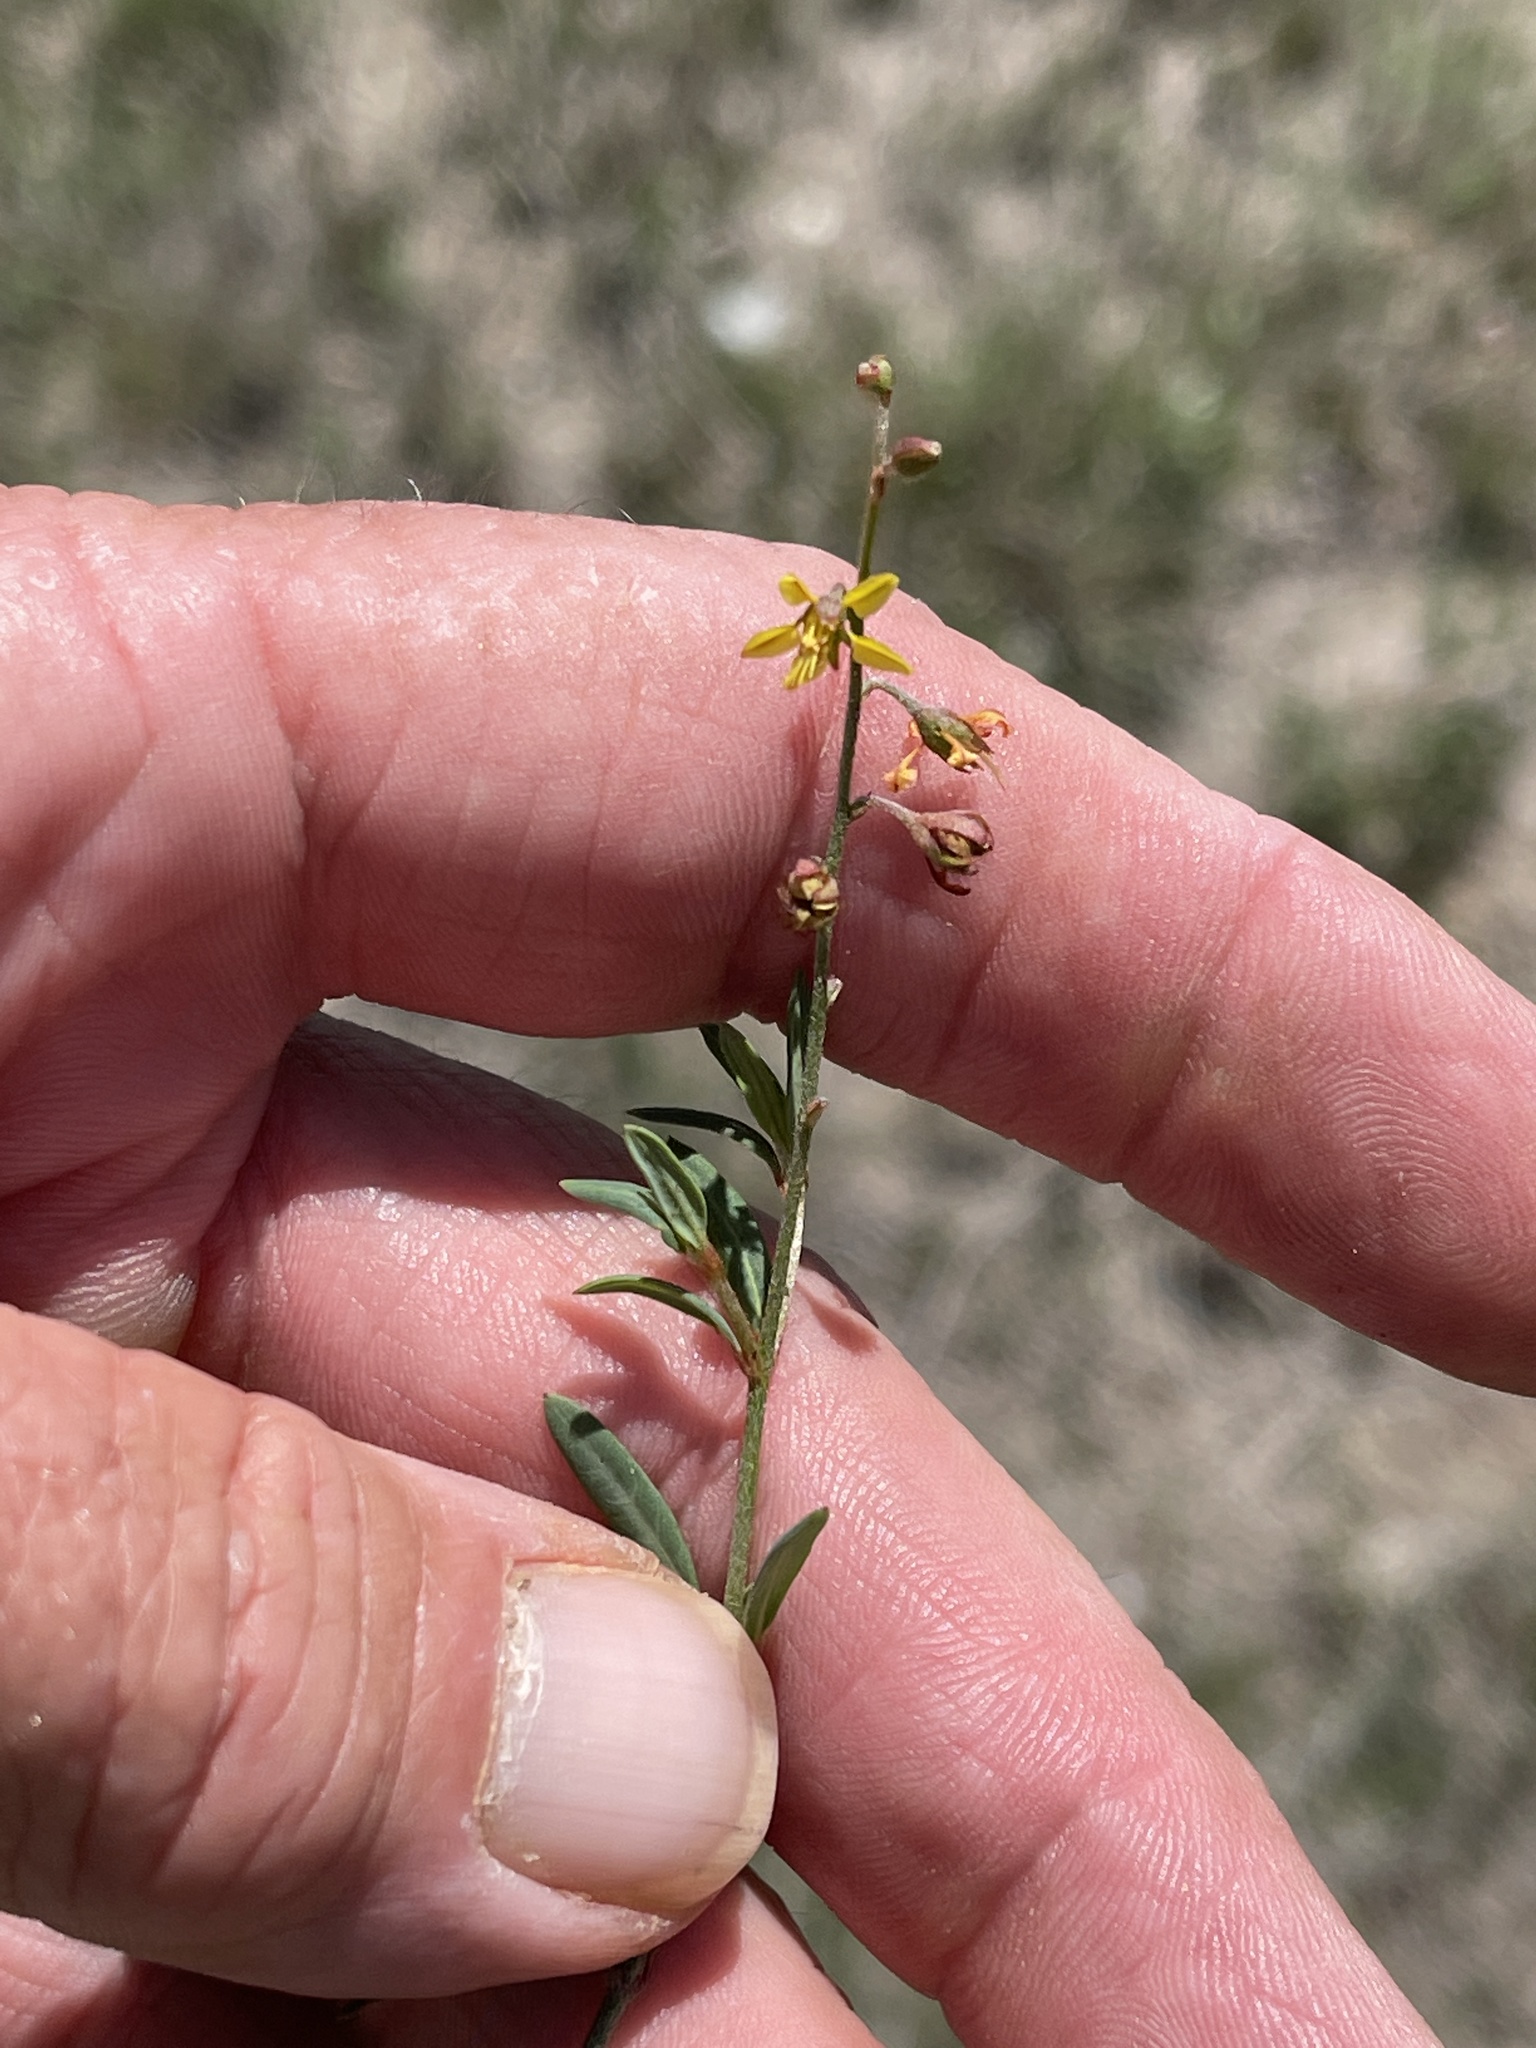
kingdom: Plantae
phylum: Tracheophyta
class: Magnoliopsida
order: Malpighiales
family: Malpighiaceae
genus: Galphimia
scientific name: Galphimia angustifolia
